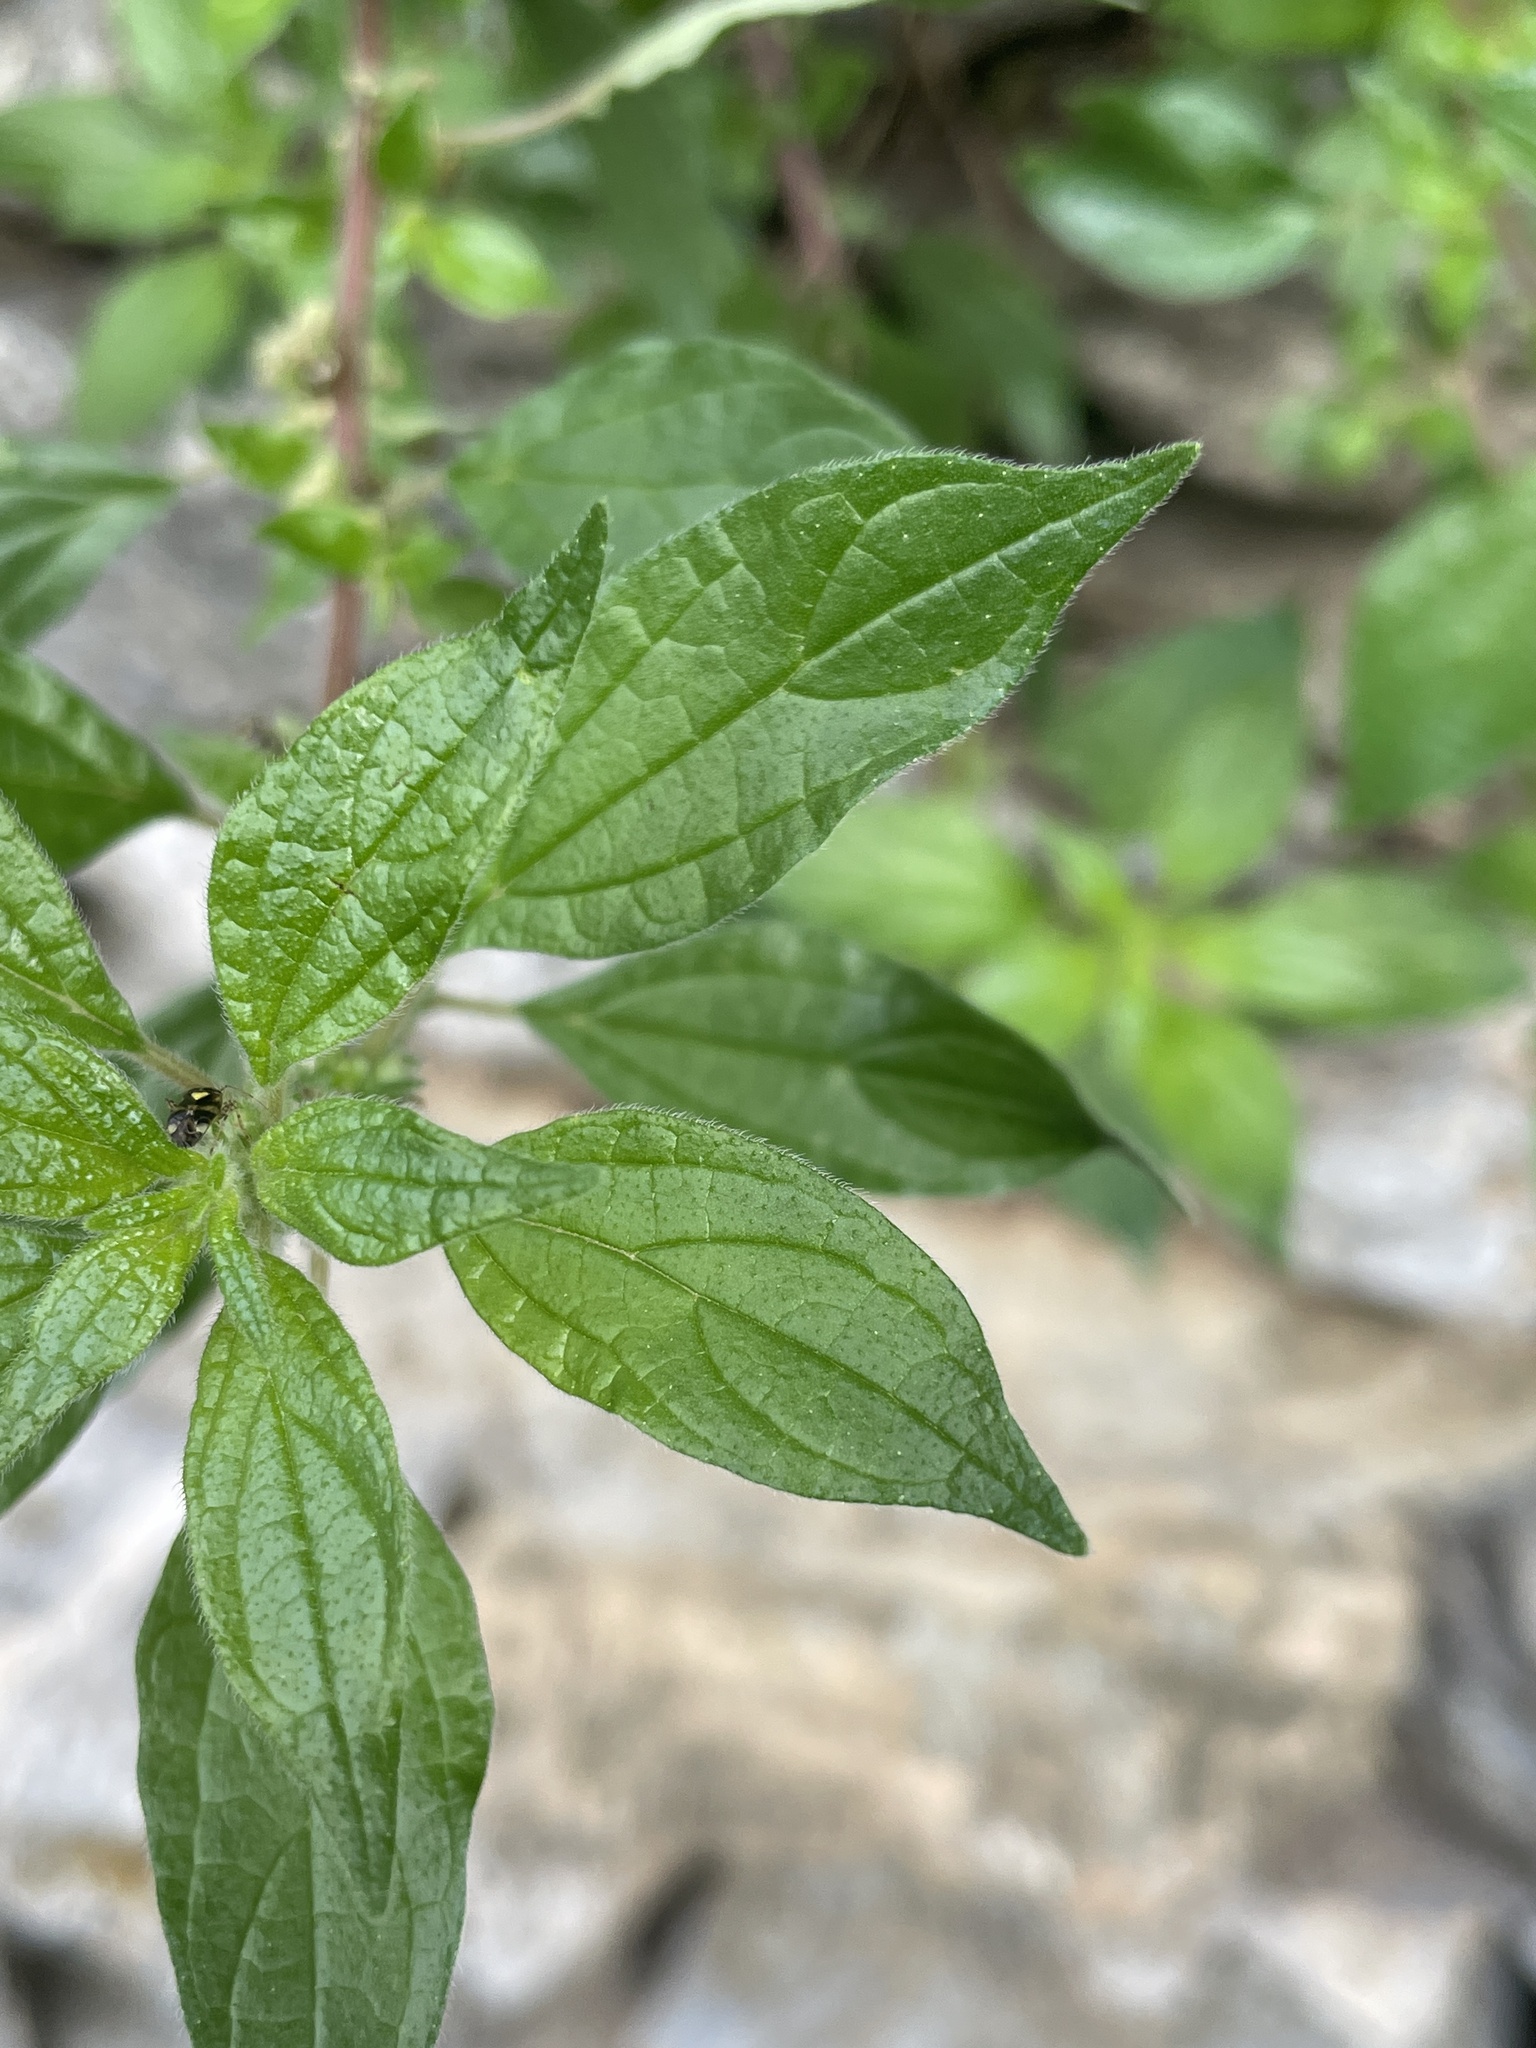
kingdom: Plantae
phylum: Tracheophyta
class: Magnoliopsida
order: Rosales
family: Urticaceae
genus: Parietaria
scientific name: Parietaria officinalis
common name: Eastern pellitory-of-the-wall
